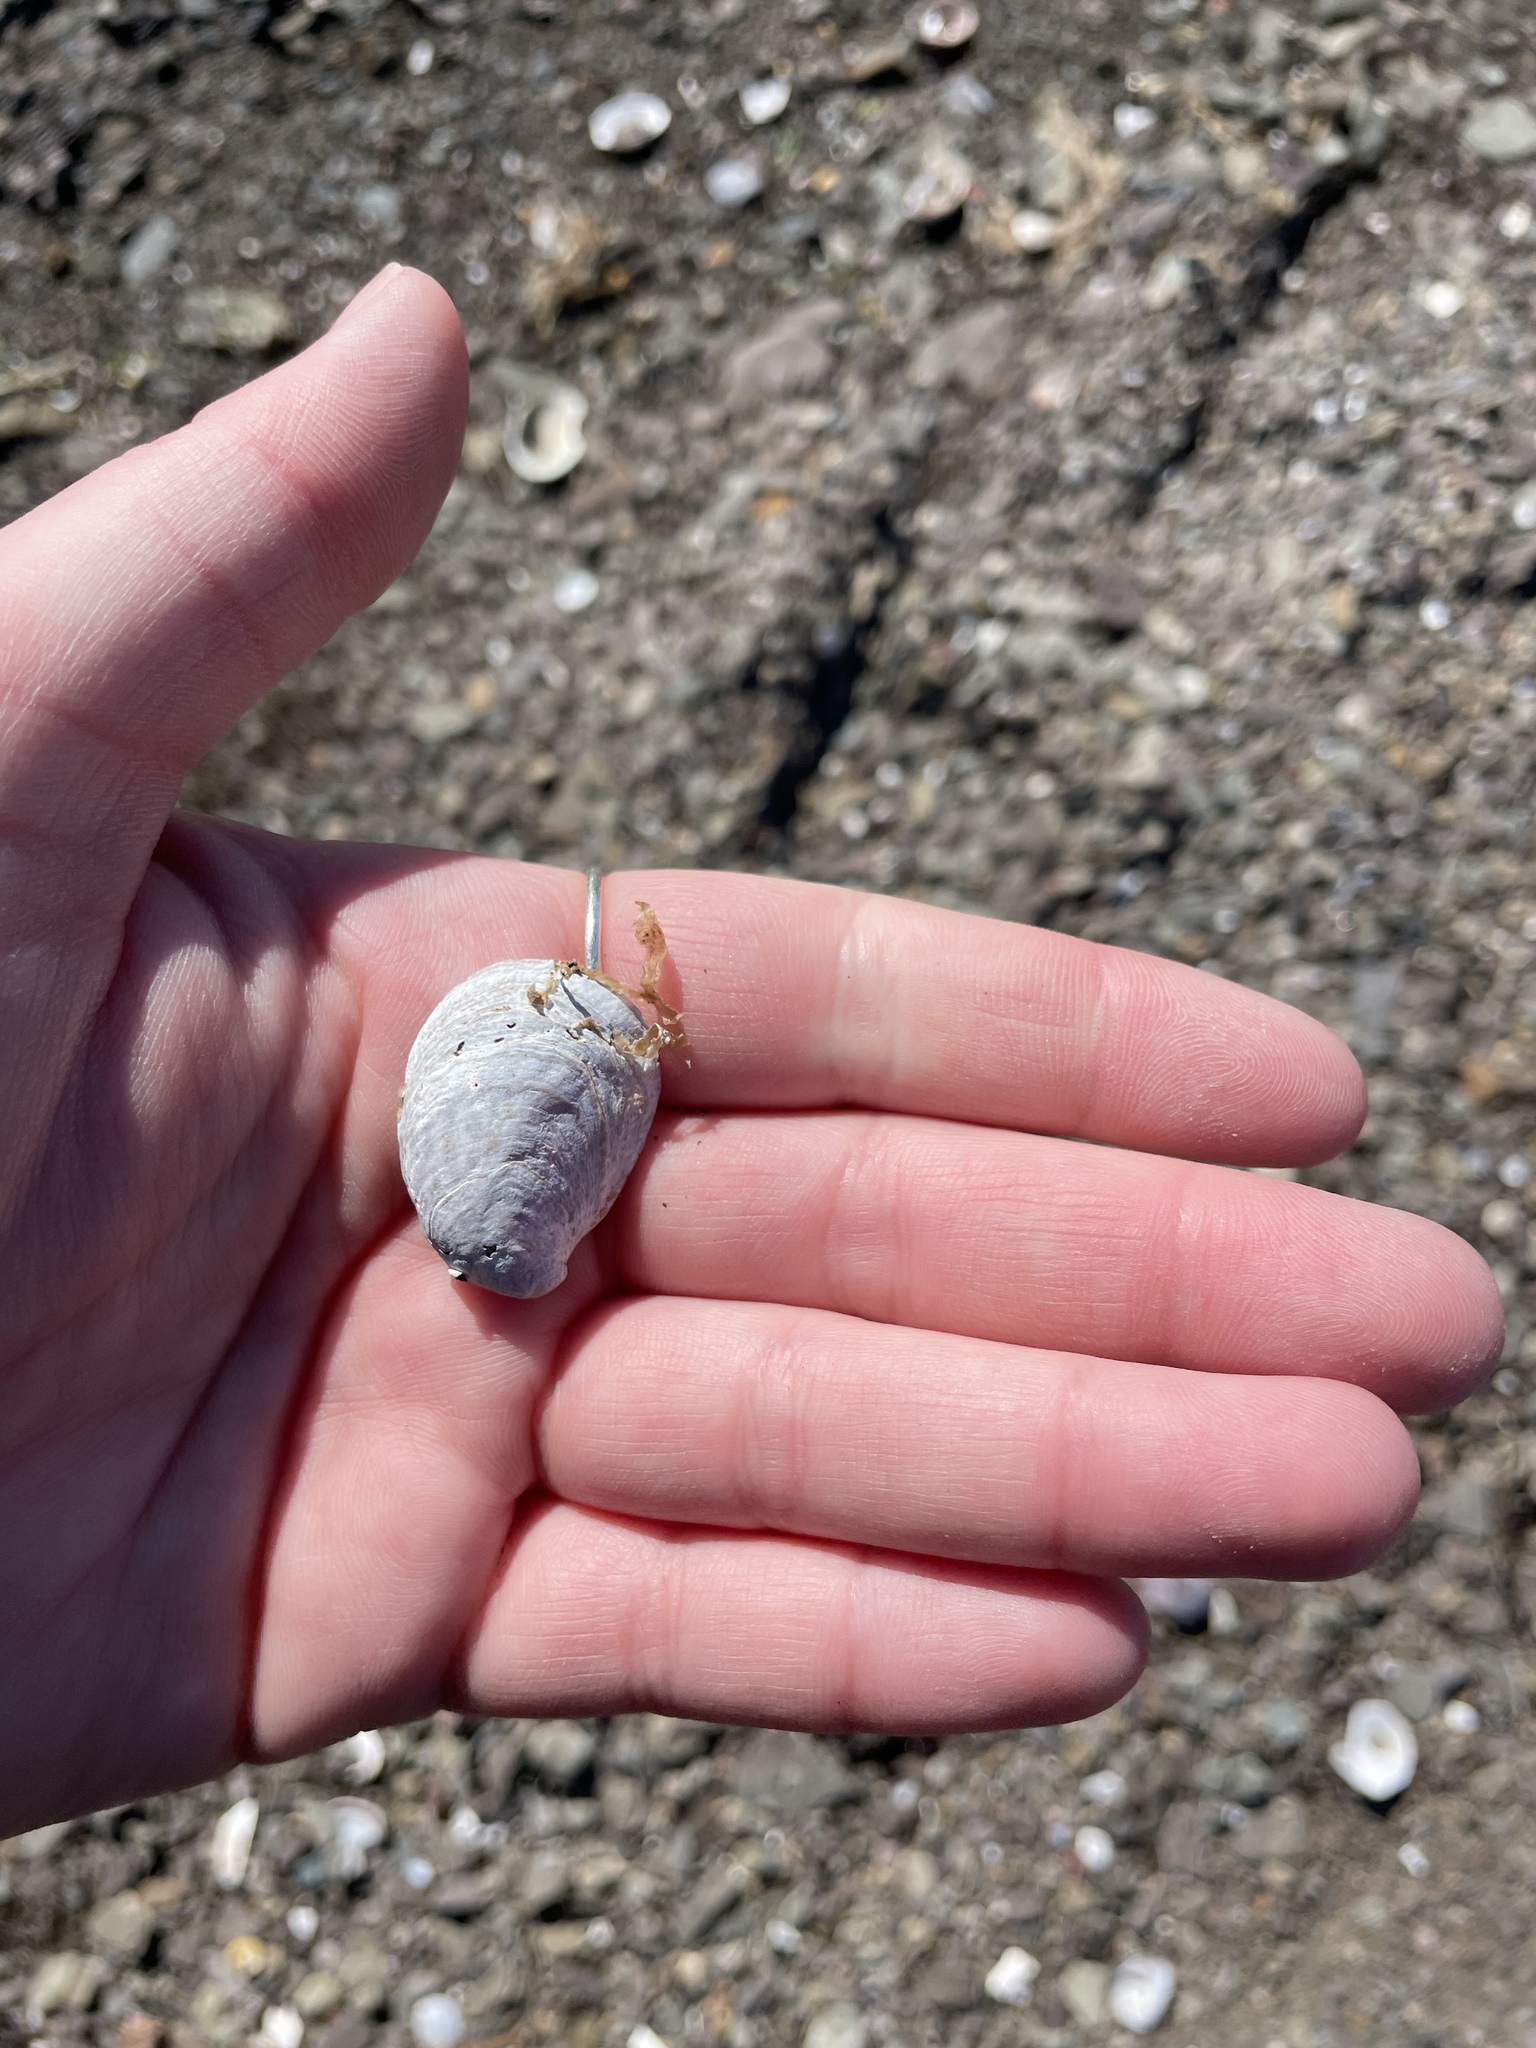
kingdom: Animalia
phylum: Mollusca
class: Gastropoda
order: Littorinimorpha
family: Calyptraeidae
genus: Crepidula
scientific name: Crepidula fornicata
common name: Slipper limpet
